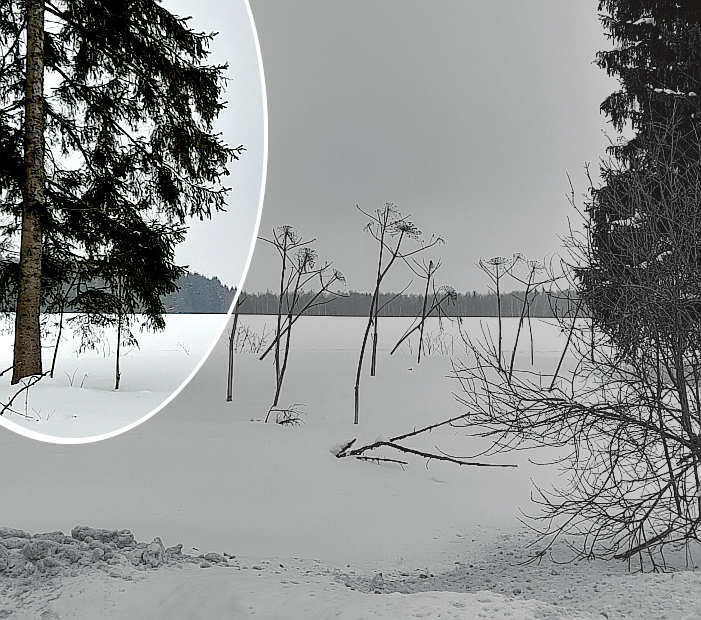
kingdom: Plantae
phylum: Tracheophyta
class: Pinopsida
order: Pinales
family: Pinaceae
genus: Picea
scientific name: Picea abies
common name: Norway spruce
